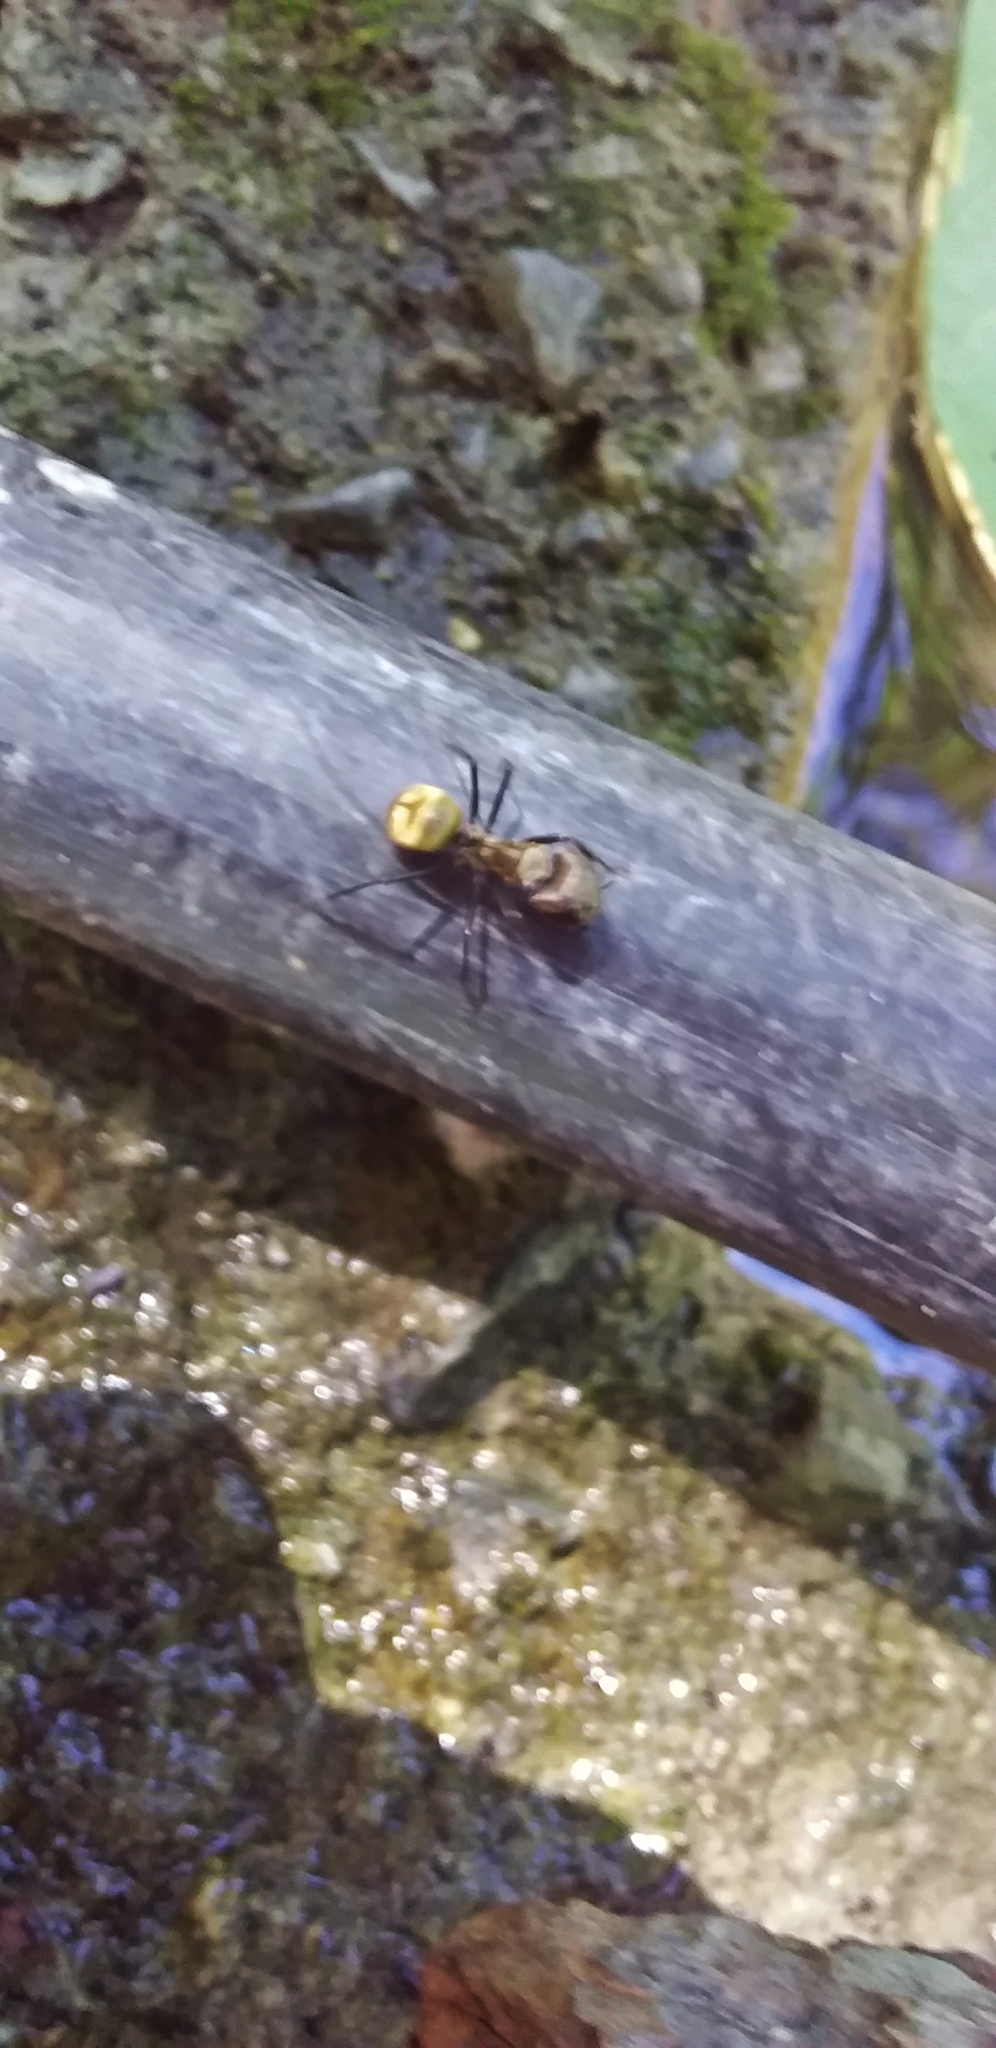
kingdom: Animalia
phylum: Arthropoda
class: Insecta
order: Hymenoptera
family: Formicidae
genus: Camponotus
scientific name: Camponotus sericeiventris
